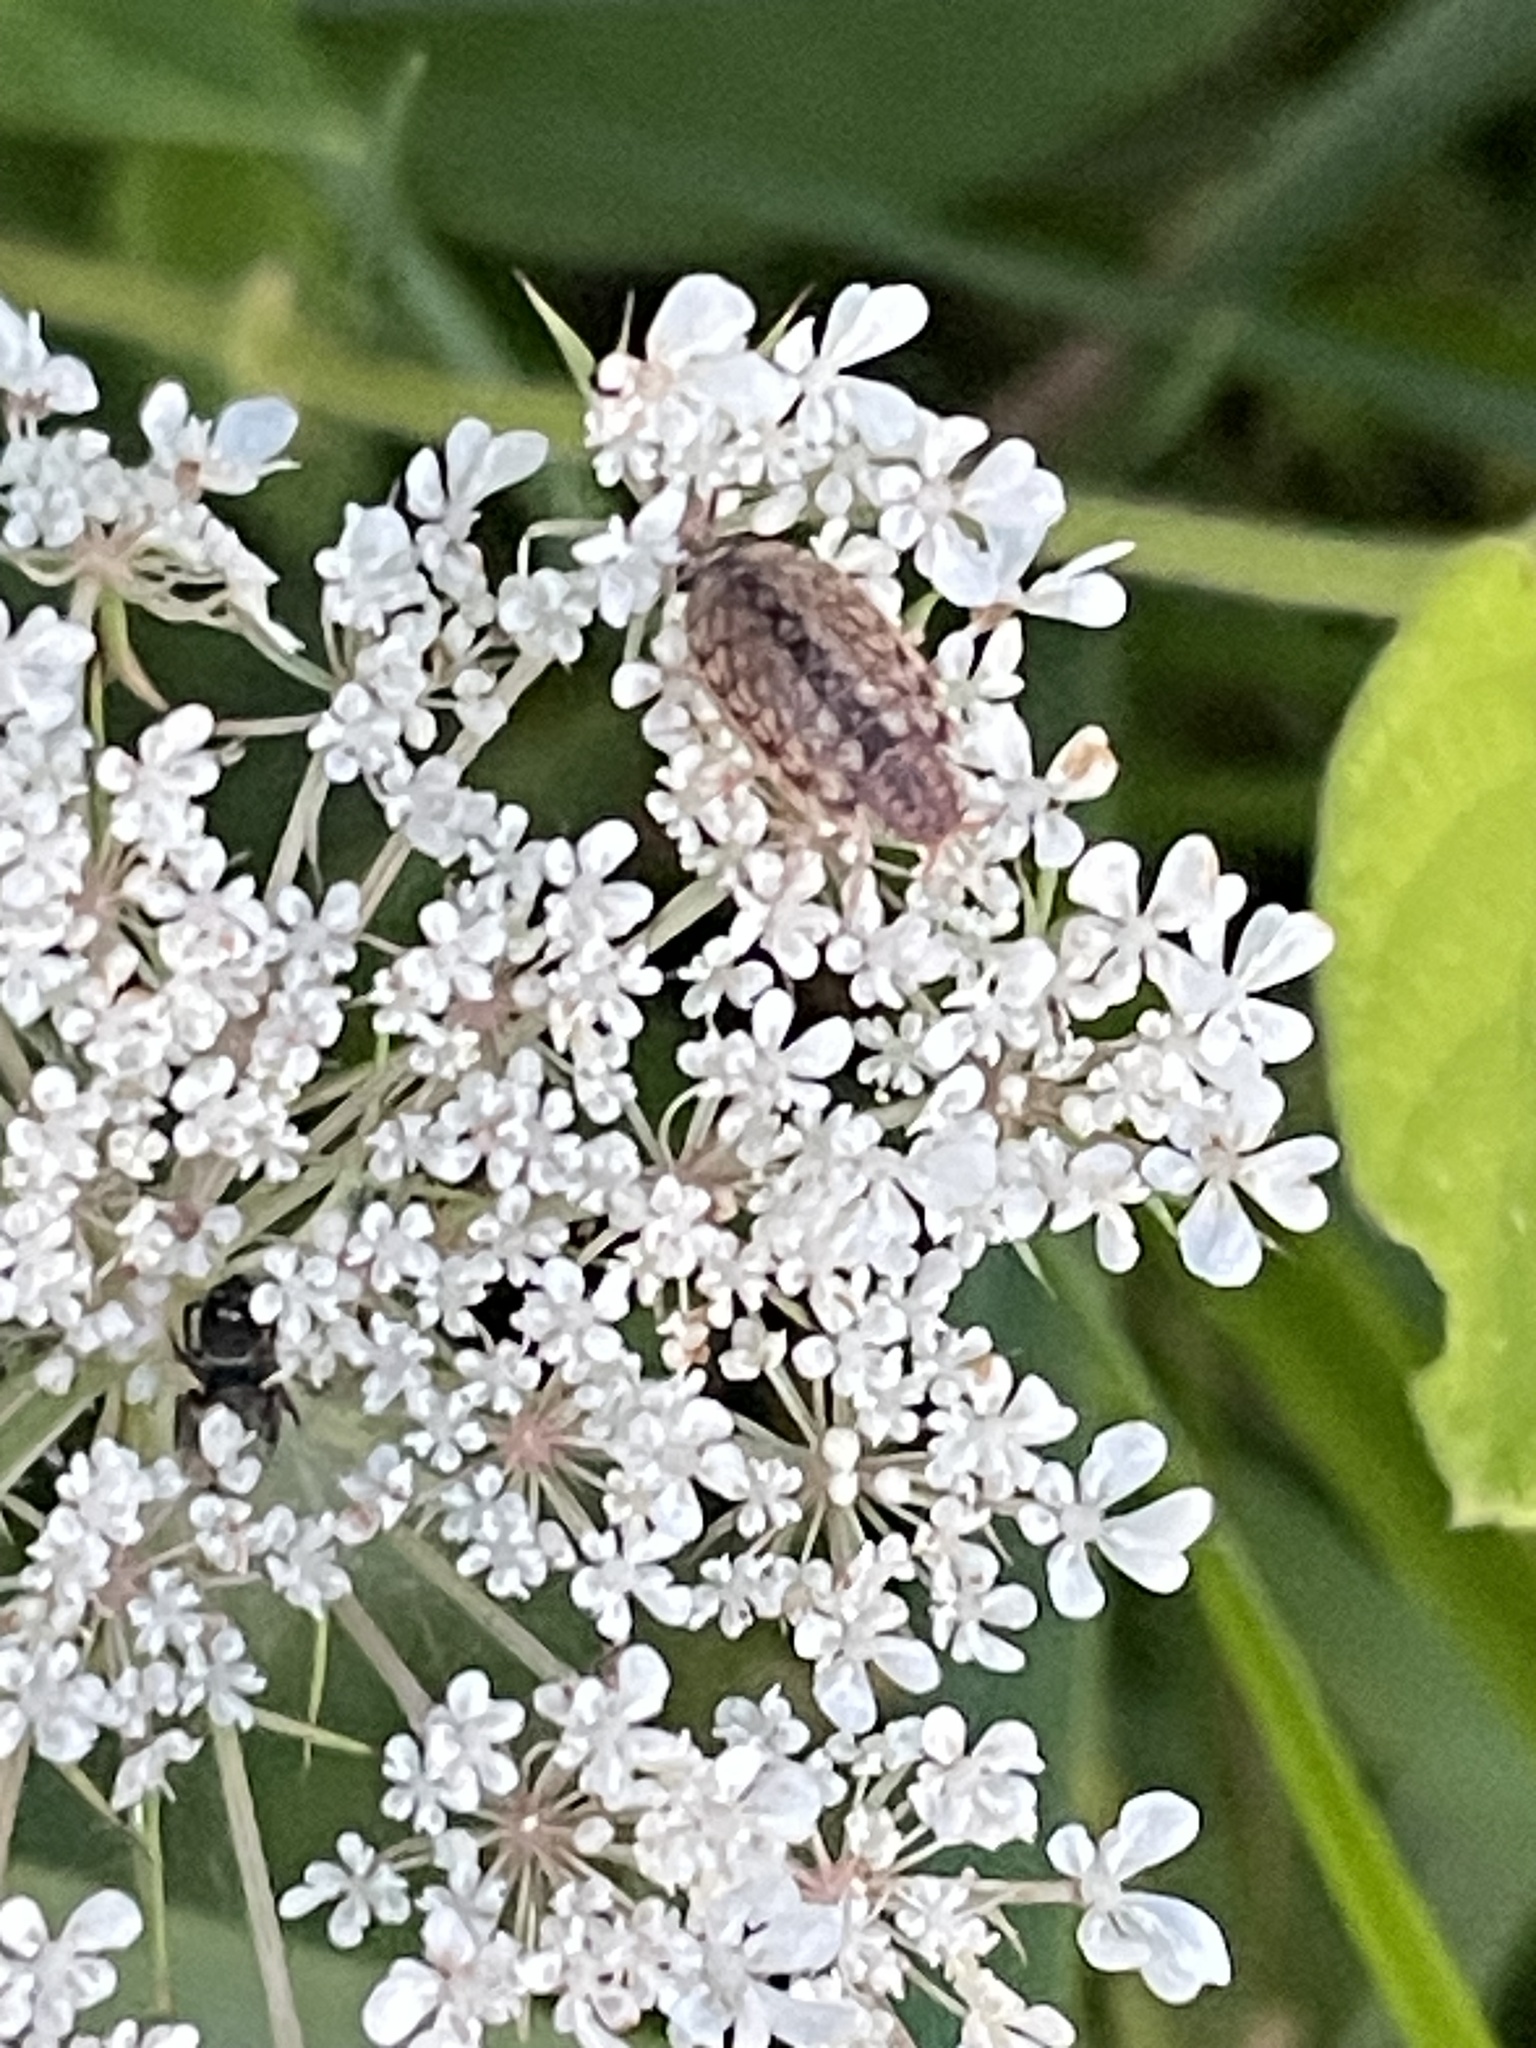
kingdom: Animalia
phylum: Arthropoda
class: Malacostraca
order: Isopoda
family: Philosciidae
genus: Philoscia
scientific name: Philoscia muscorum
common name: Common striped woodlouse
